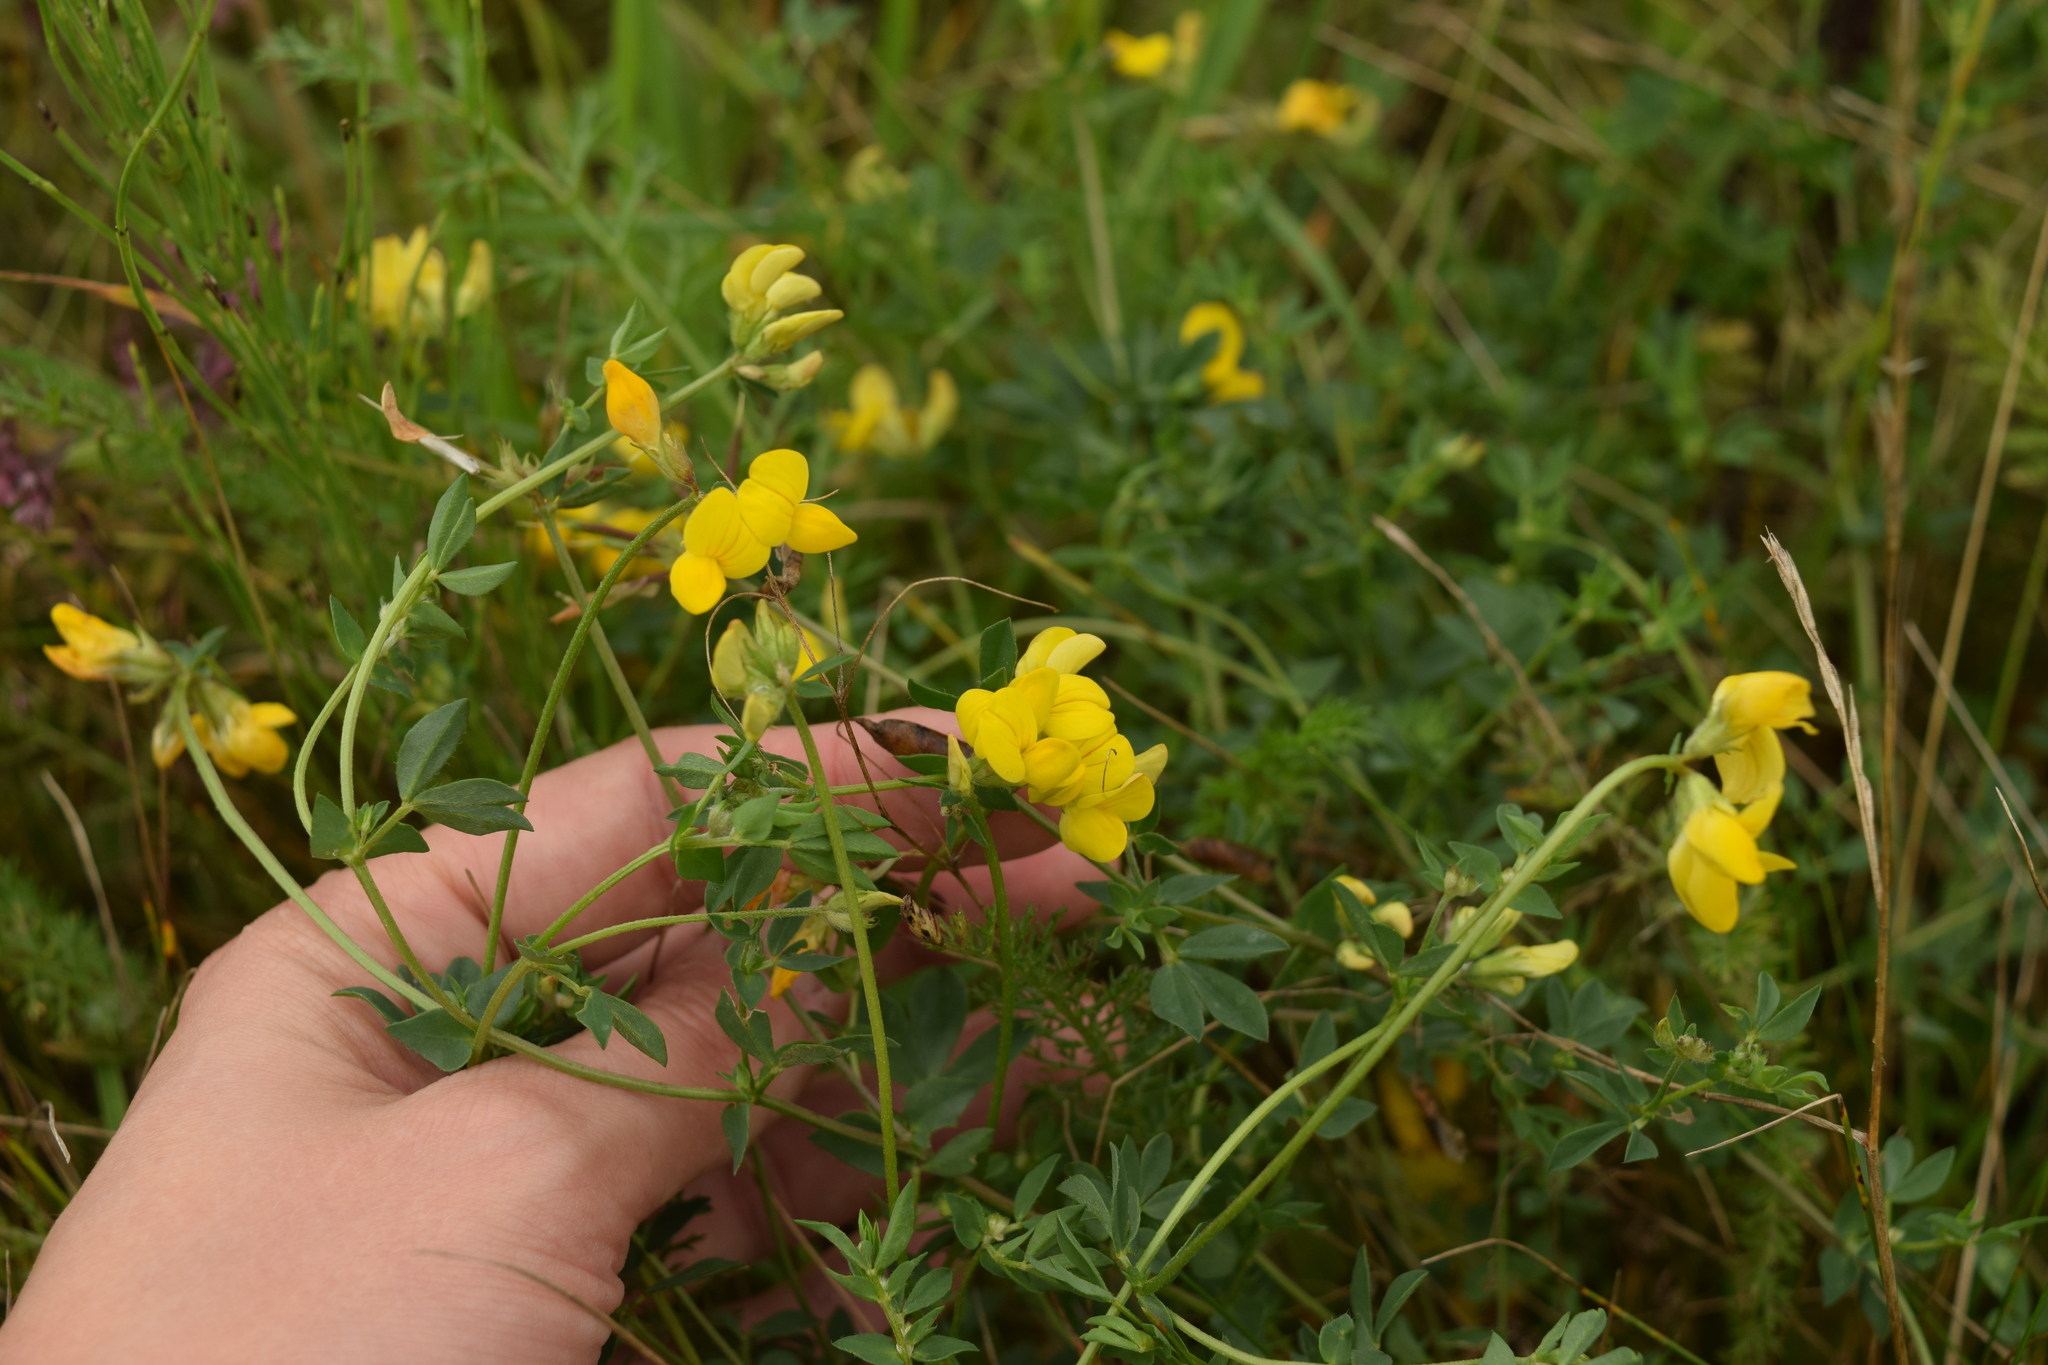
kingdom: Plantae
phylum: Tracheophyta
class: Magnoliopsida
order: Fabales
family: Fabaceae
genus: Lotus
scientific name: Lotus corniculatus
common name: Common bird's-foot-trefoil
